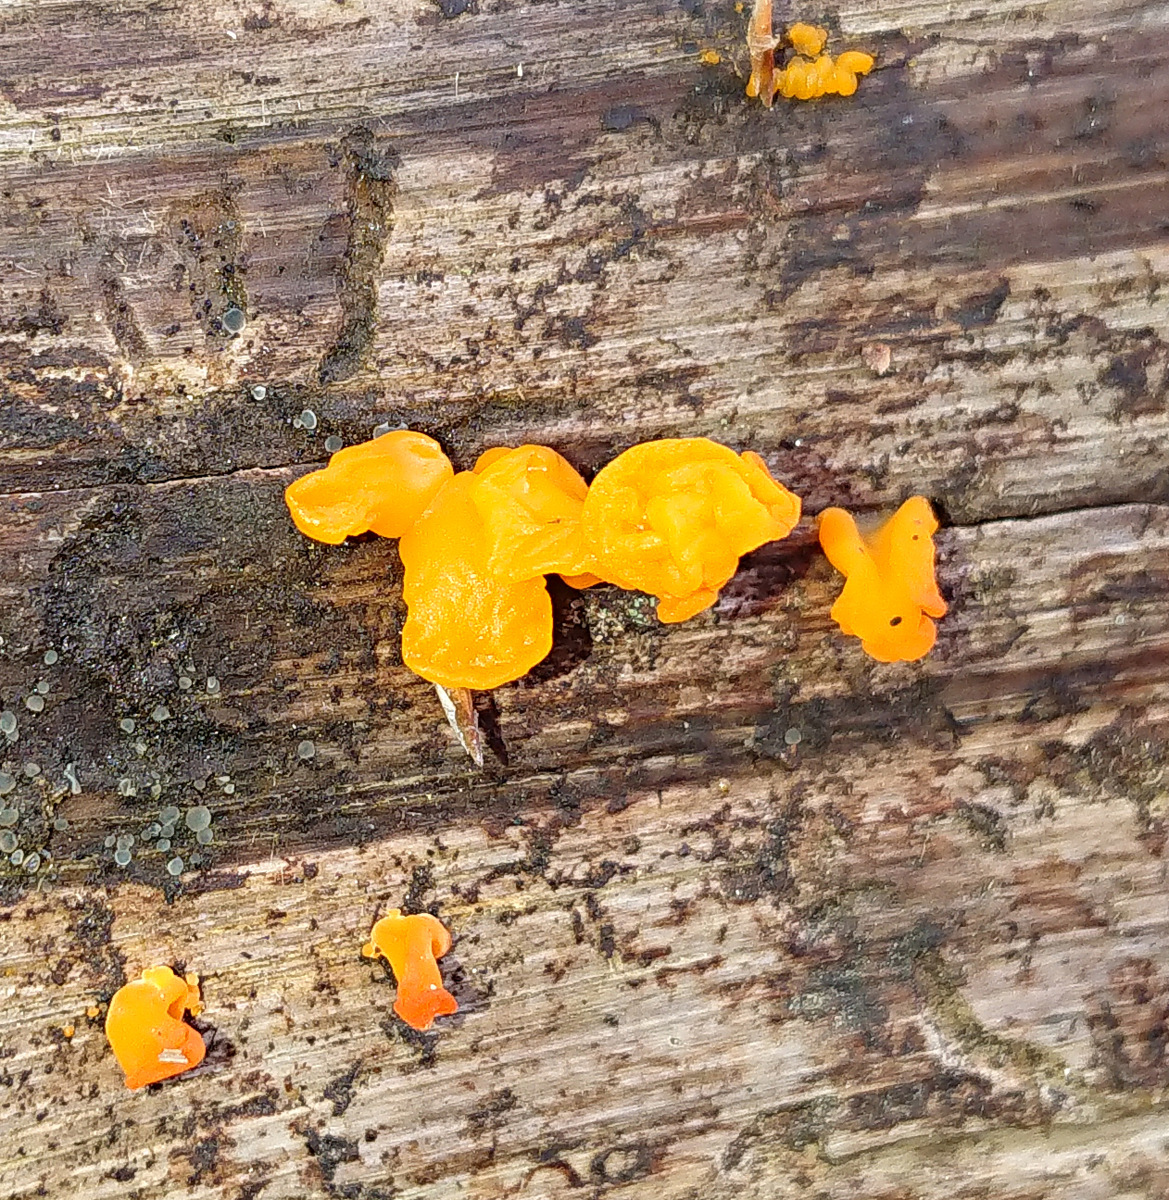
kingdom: Fungi
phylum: Basidiomycota
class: Tremellomycetes
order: Tremellales
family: Tremellaceae
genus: Tremella
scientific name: Tremella mesenterica
